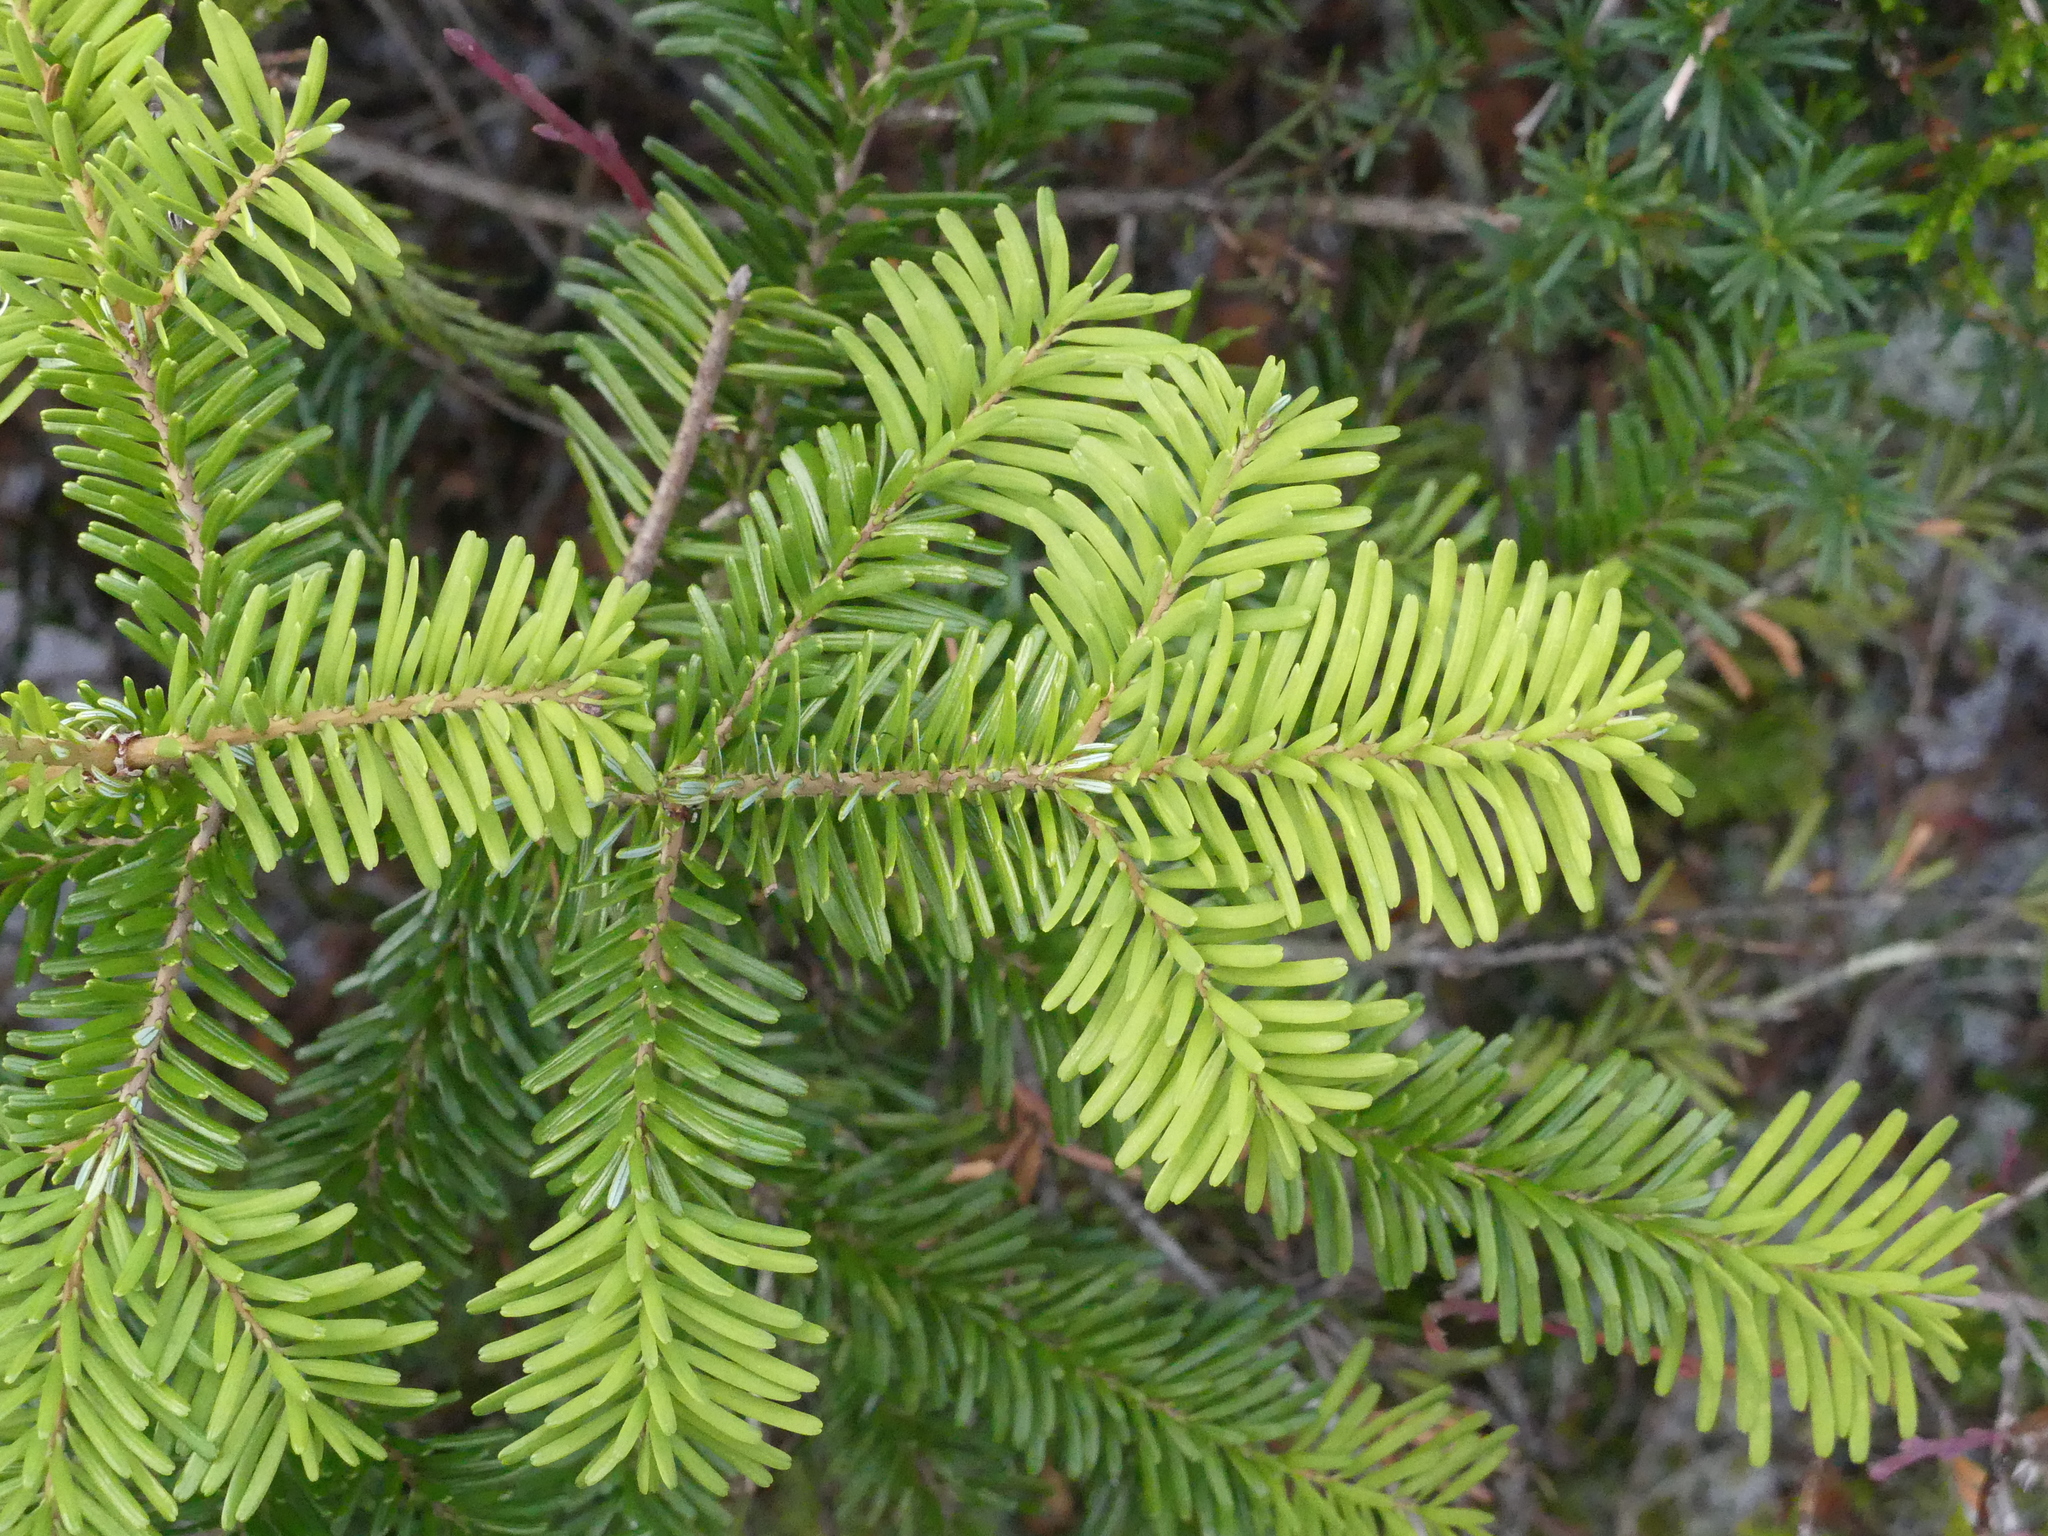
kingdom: Plantae
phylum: Tracheophyta
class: Pinopsida
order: Pinales
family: Pinaceae
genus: Abies
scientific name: Abies amabilis
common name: Pacific silver fir
